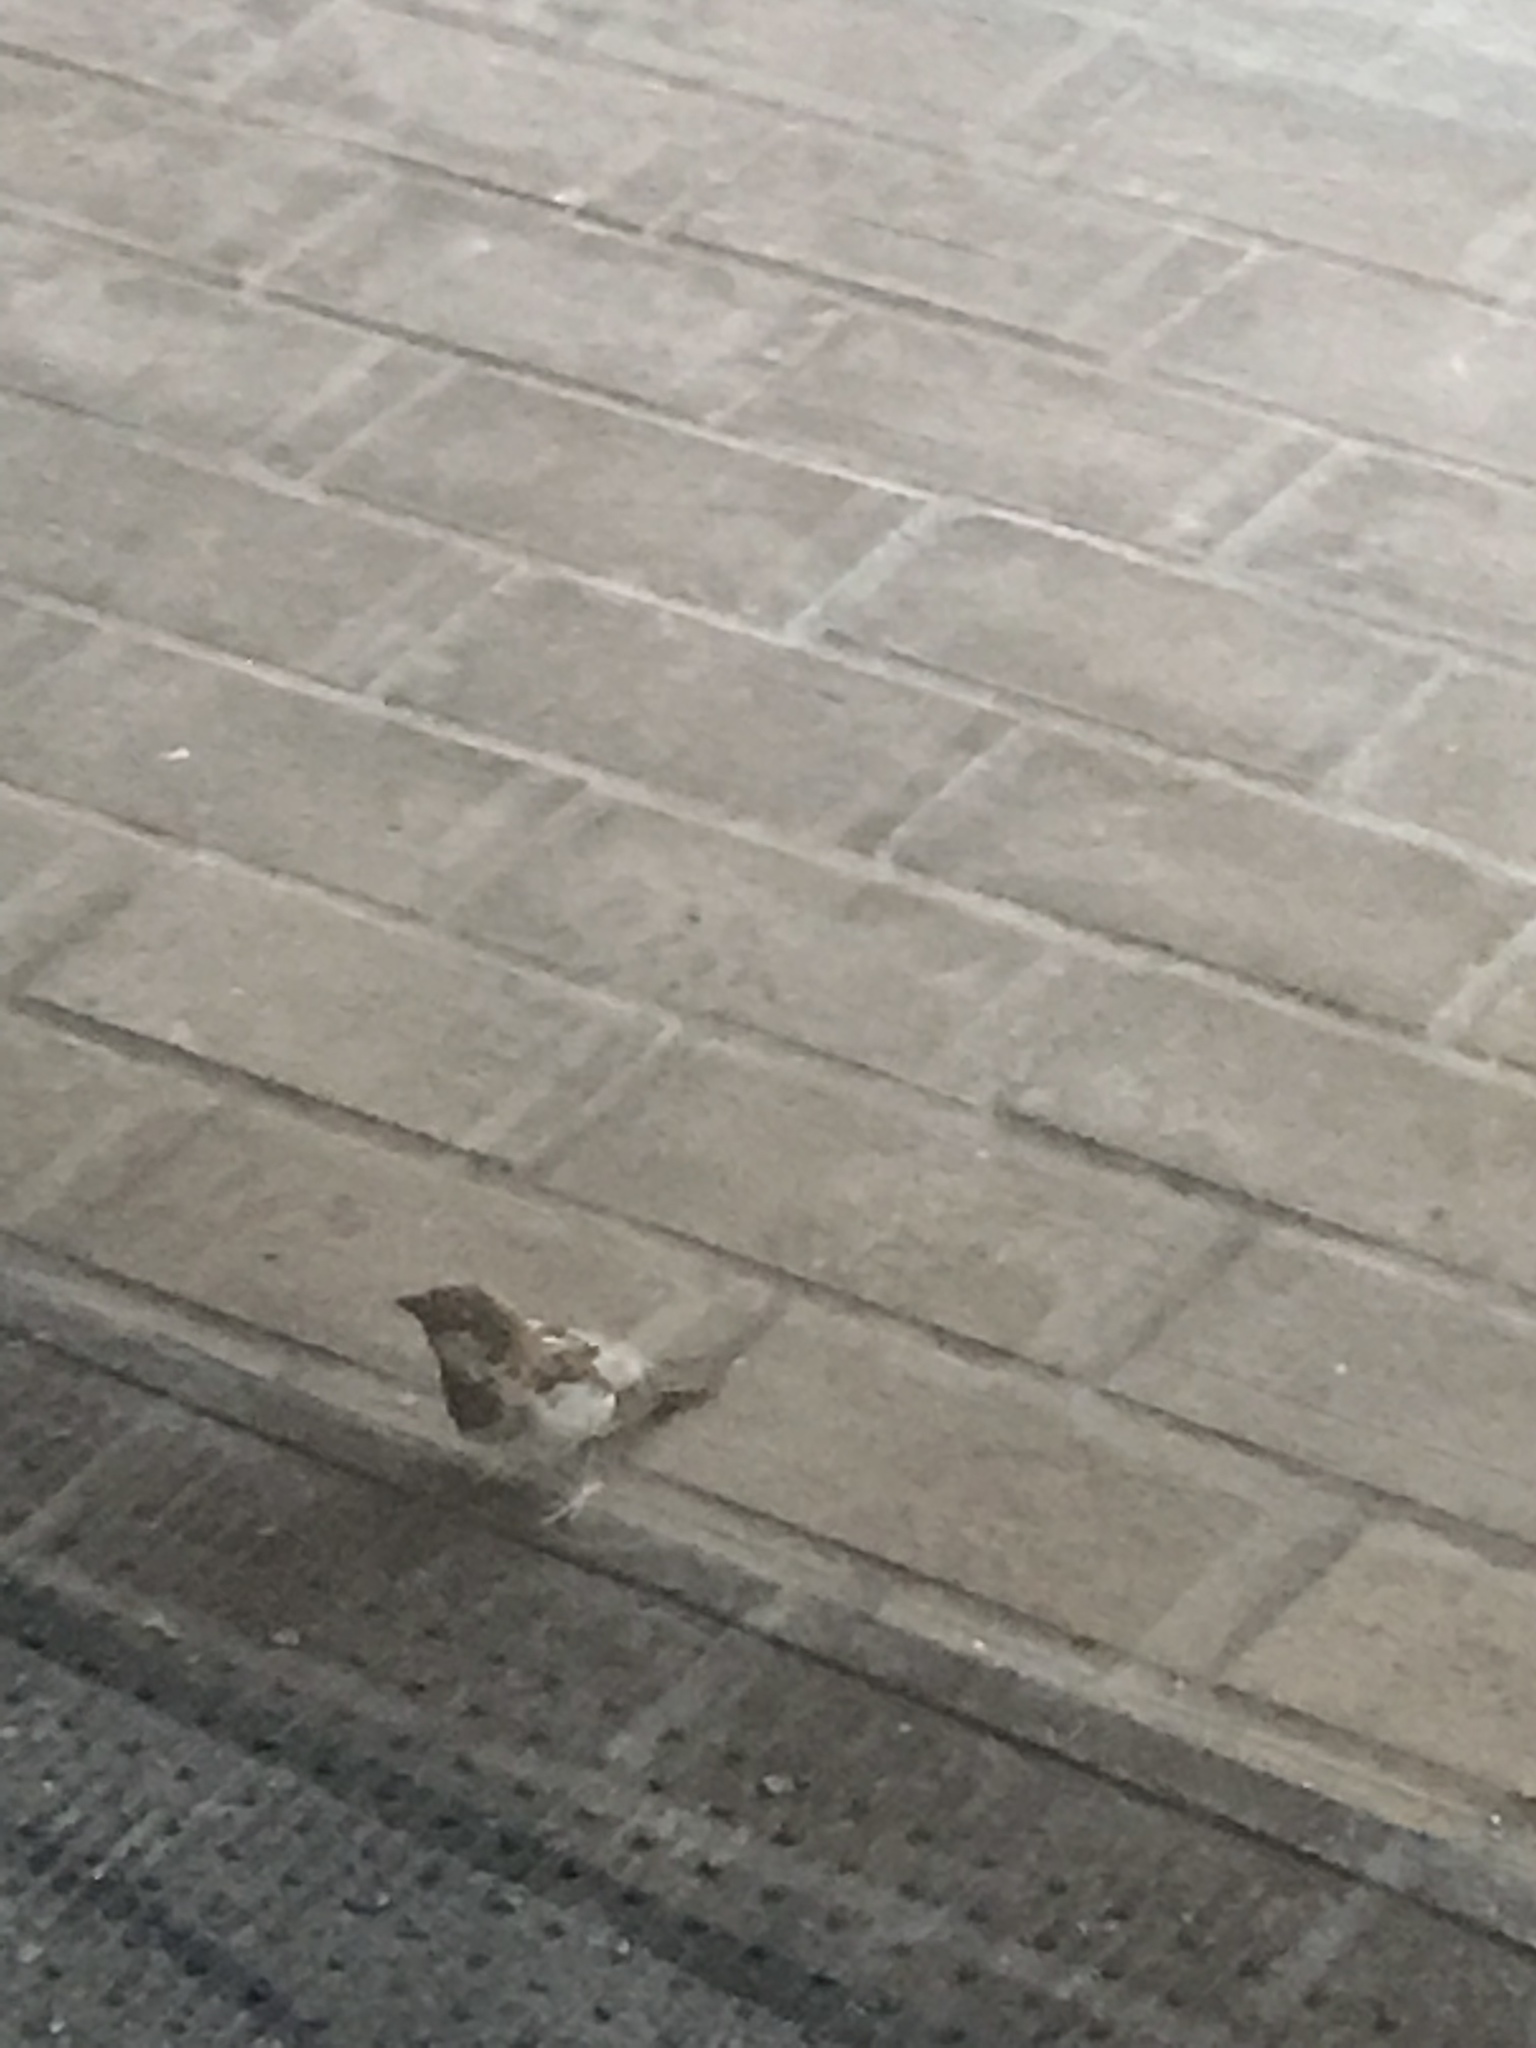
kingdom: Animalia
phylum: Chordata
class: Aves
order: Passeriformes
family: Passeridae
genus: Passer
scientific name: Passer domesticus
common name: House sparrow
